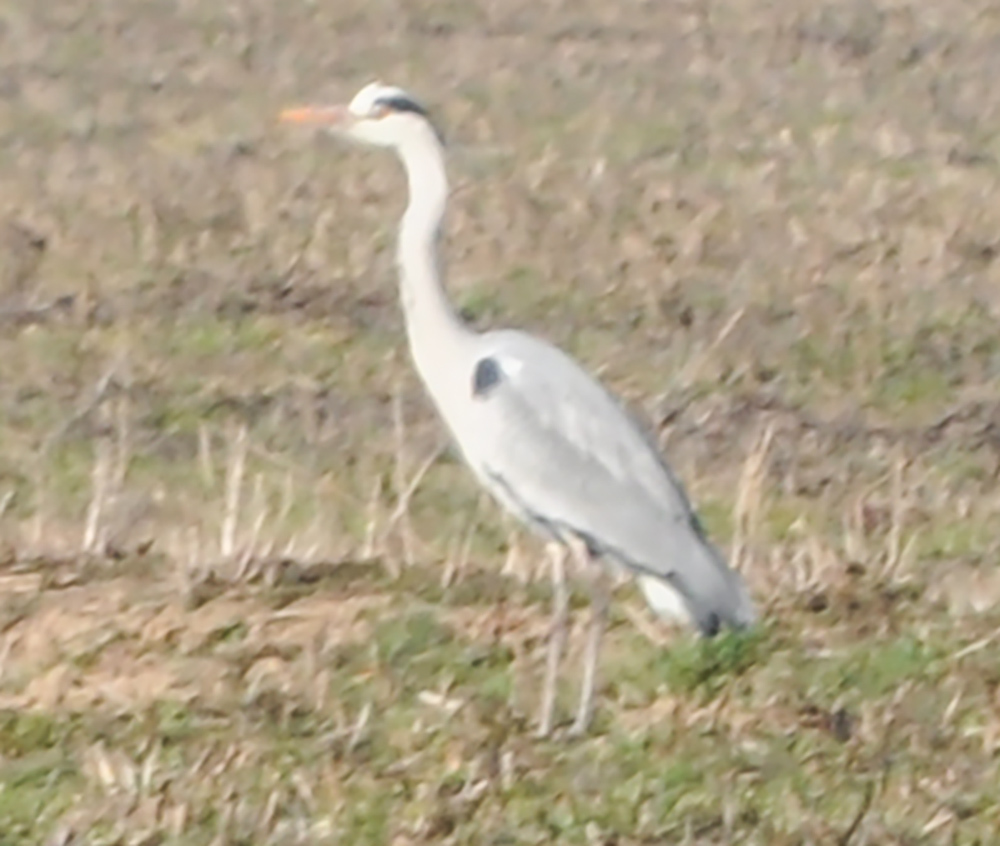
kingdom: Animalia
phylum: Chordata
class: Aves
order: Pelecaniformes
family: Ardeidae
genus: Ardea
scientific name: Ardea cinerea
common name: Grey heron
